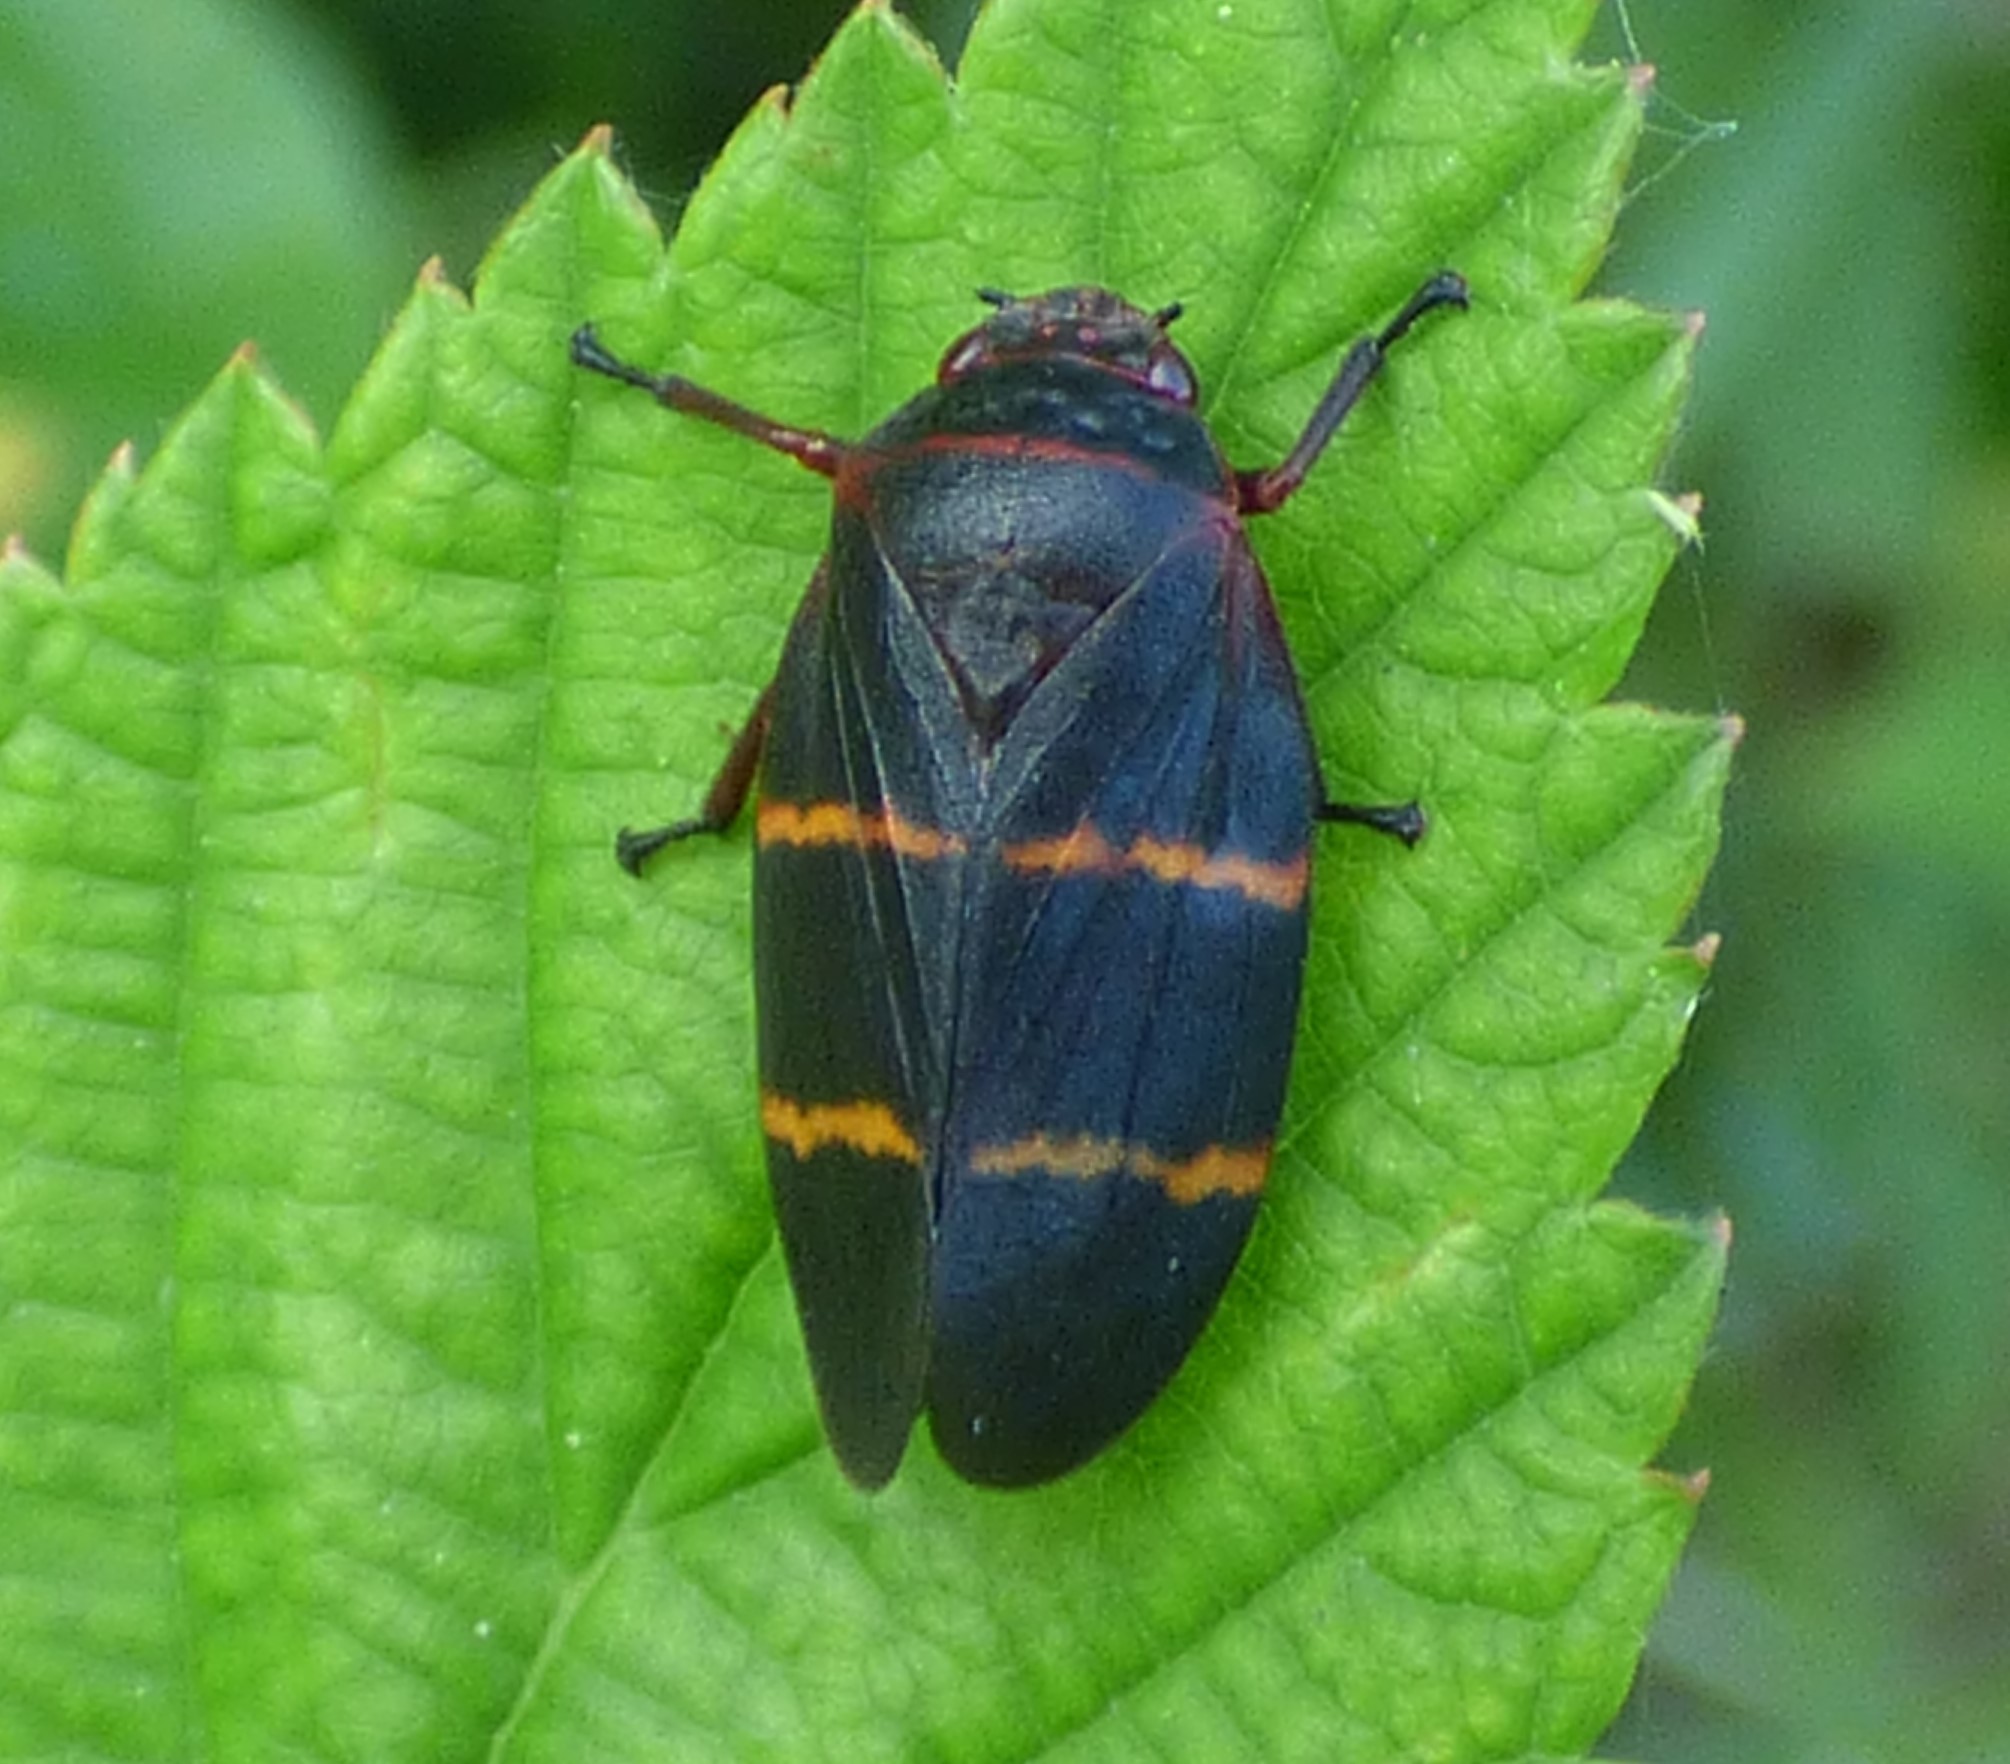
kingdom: Animalia
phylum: Arthropoda
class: Insecta
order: Hemiptera
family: Cercopidae
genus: Prosapia
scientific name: Prosapia bicincta
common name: Twolined spittlebug
